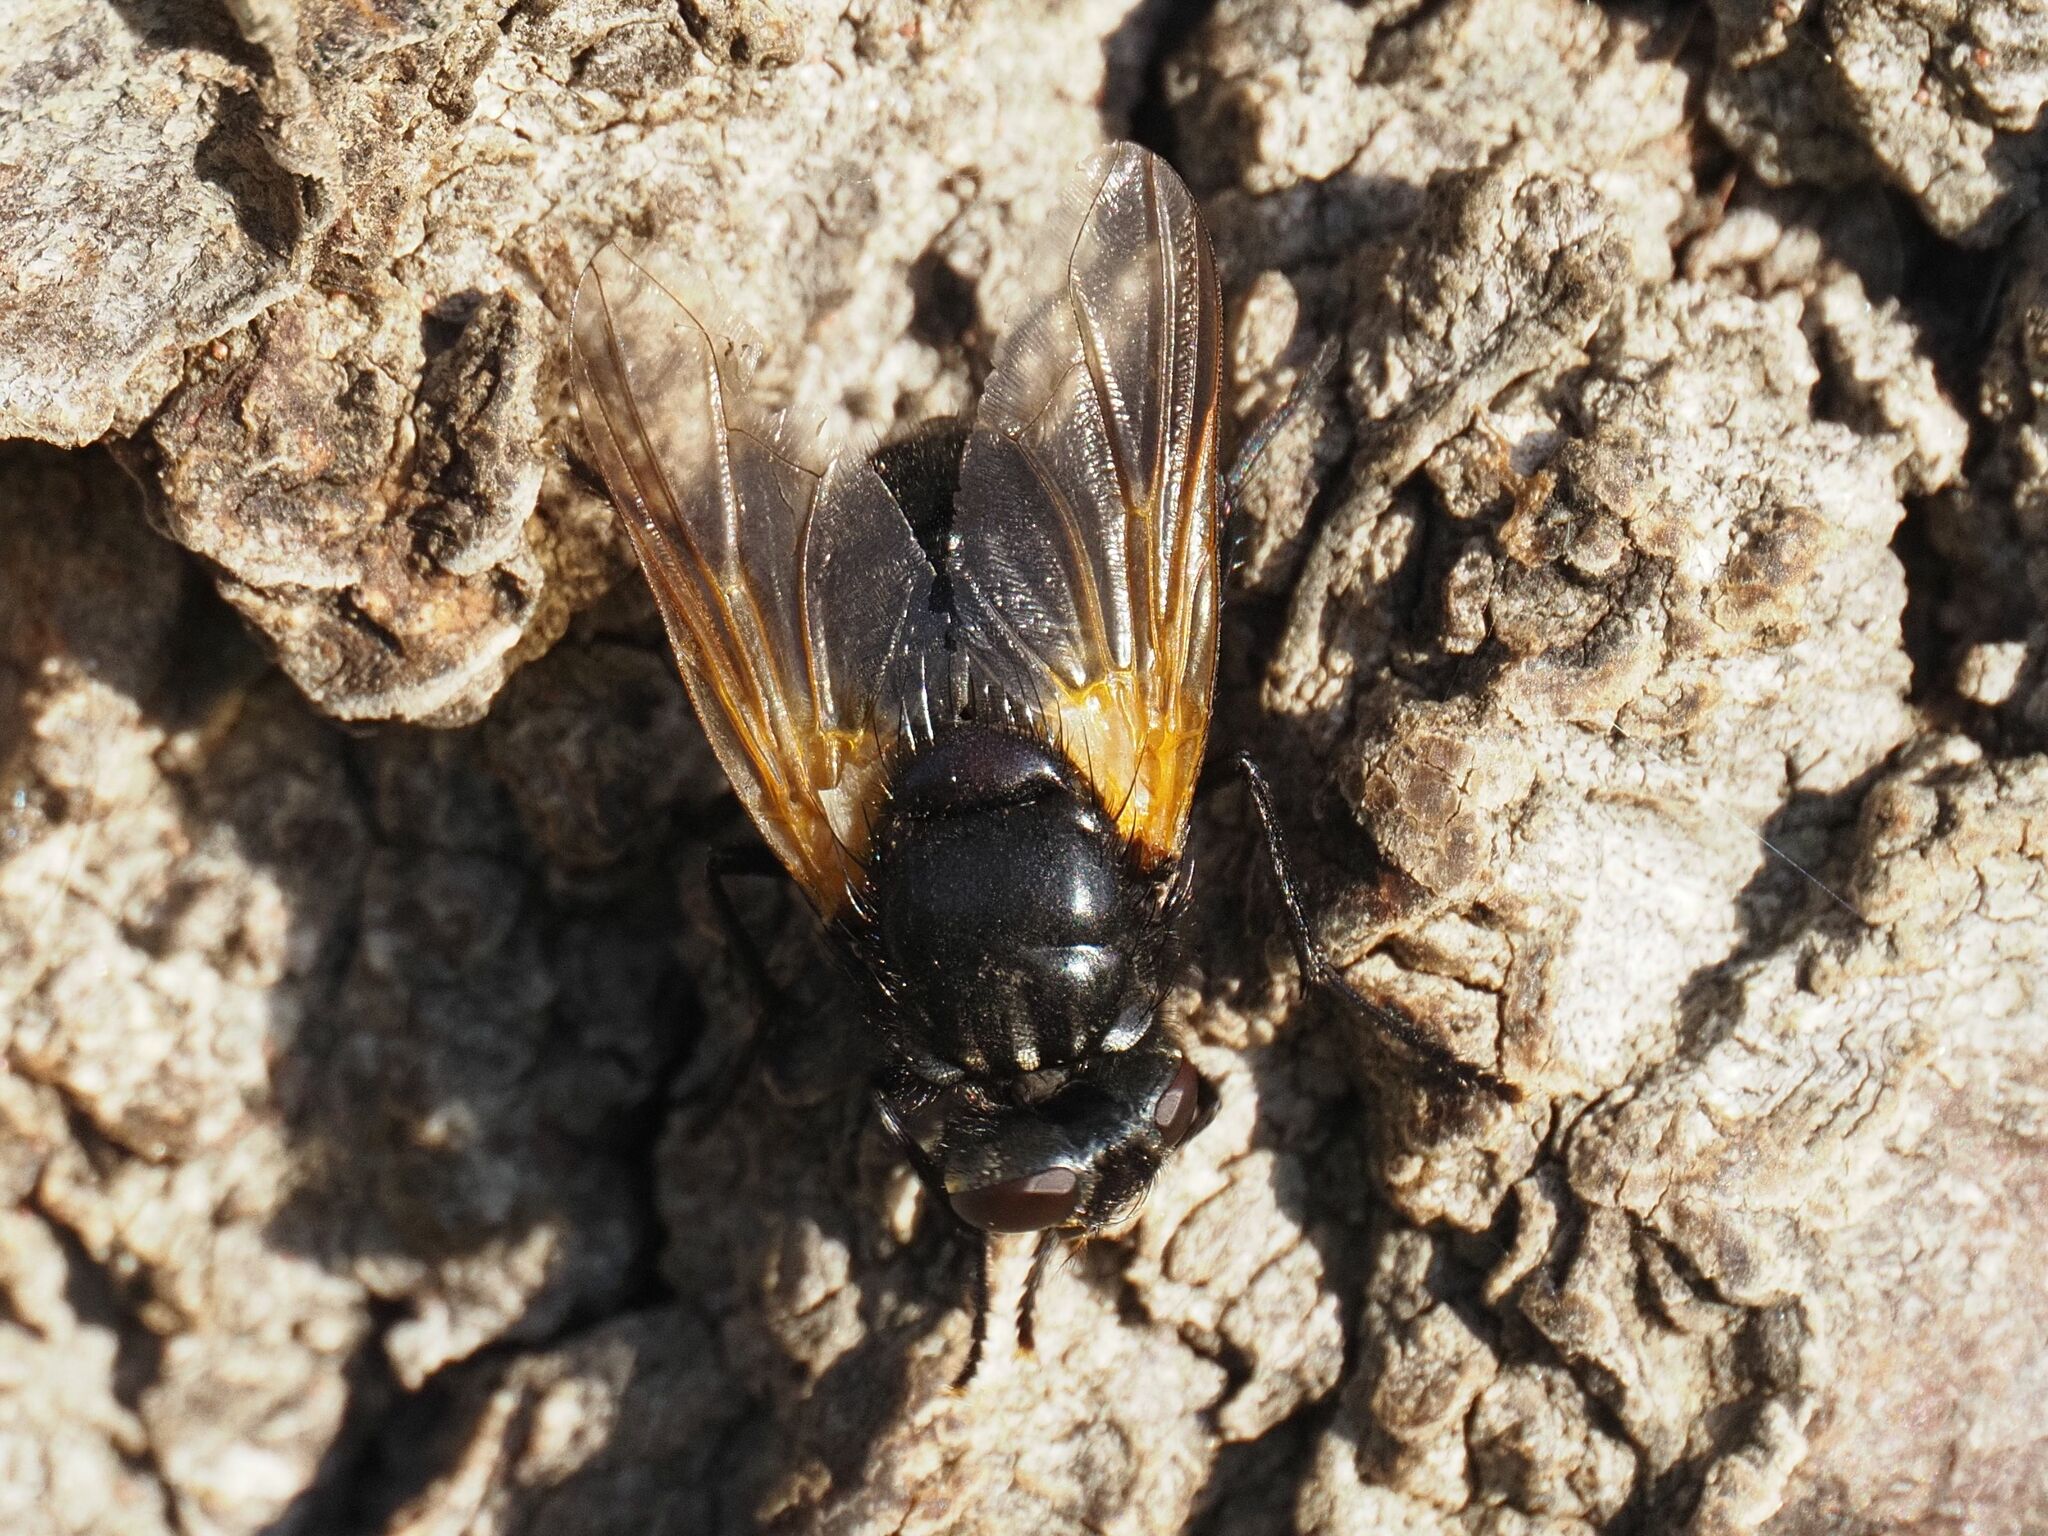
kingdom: Animalia
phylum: Arthropoda
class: Insecta
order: Diptera
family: Muscidae
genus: Mesembrina
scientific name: Mesembrina meridiana
